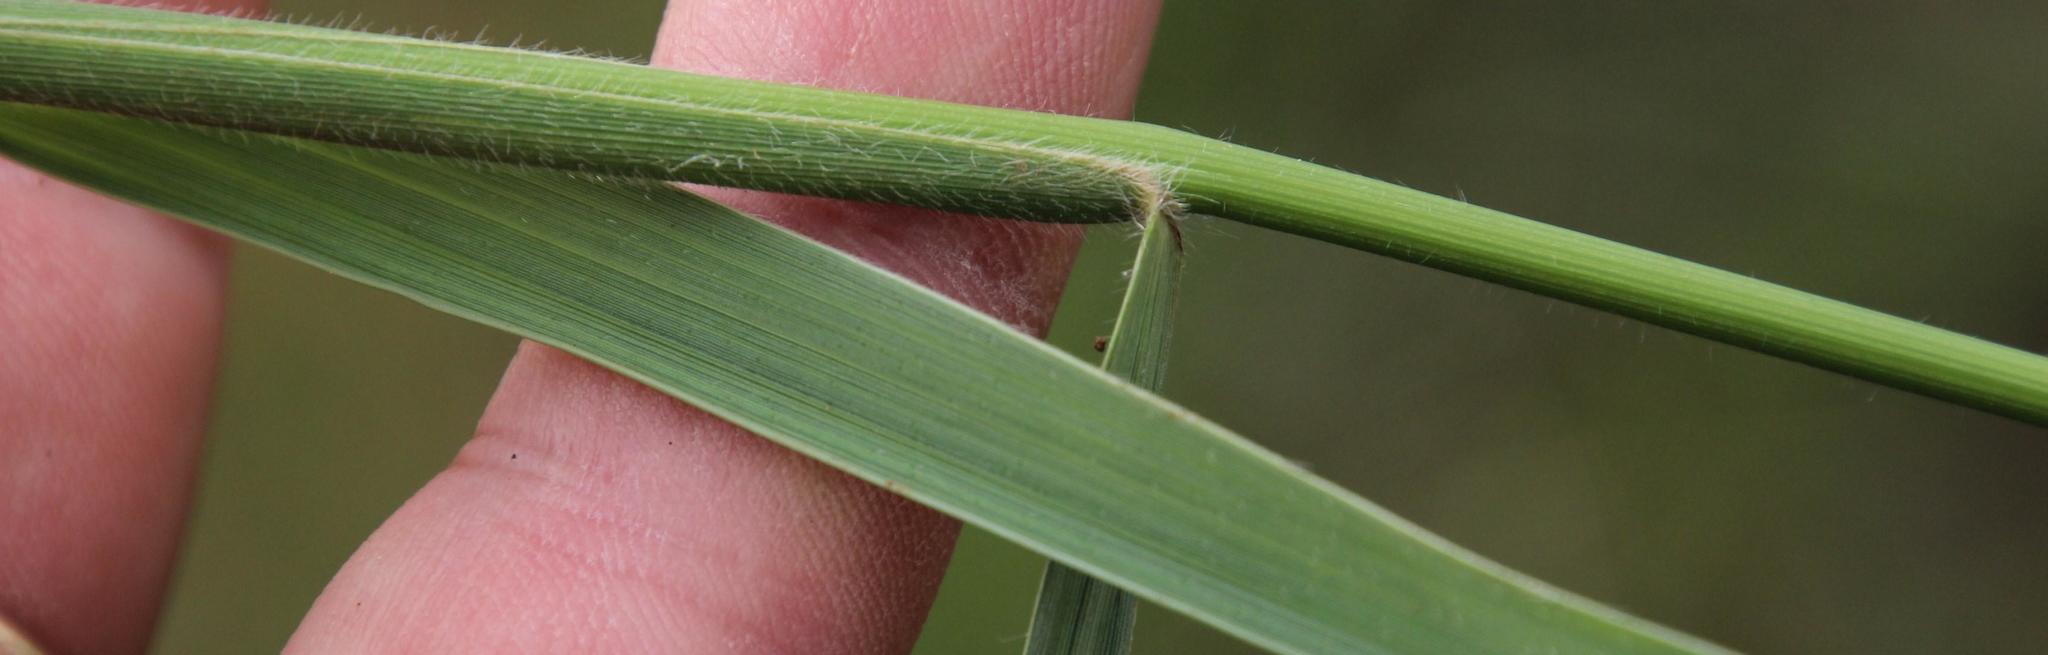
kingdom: Plantae
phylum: Tracheophyta
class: Liliopsida
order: Poales
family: Poaceae
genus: Alloteropsis
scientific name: Alloteropsis semialata
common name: Cockatoo grass
